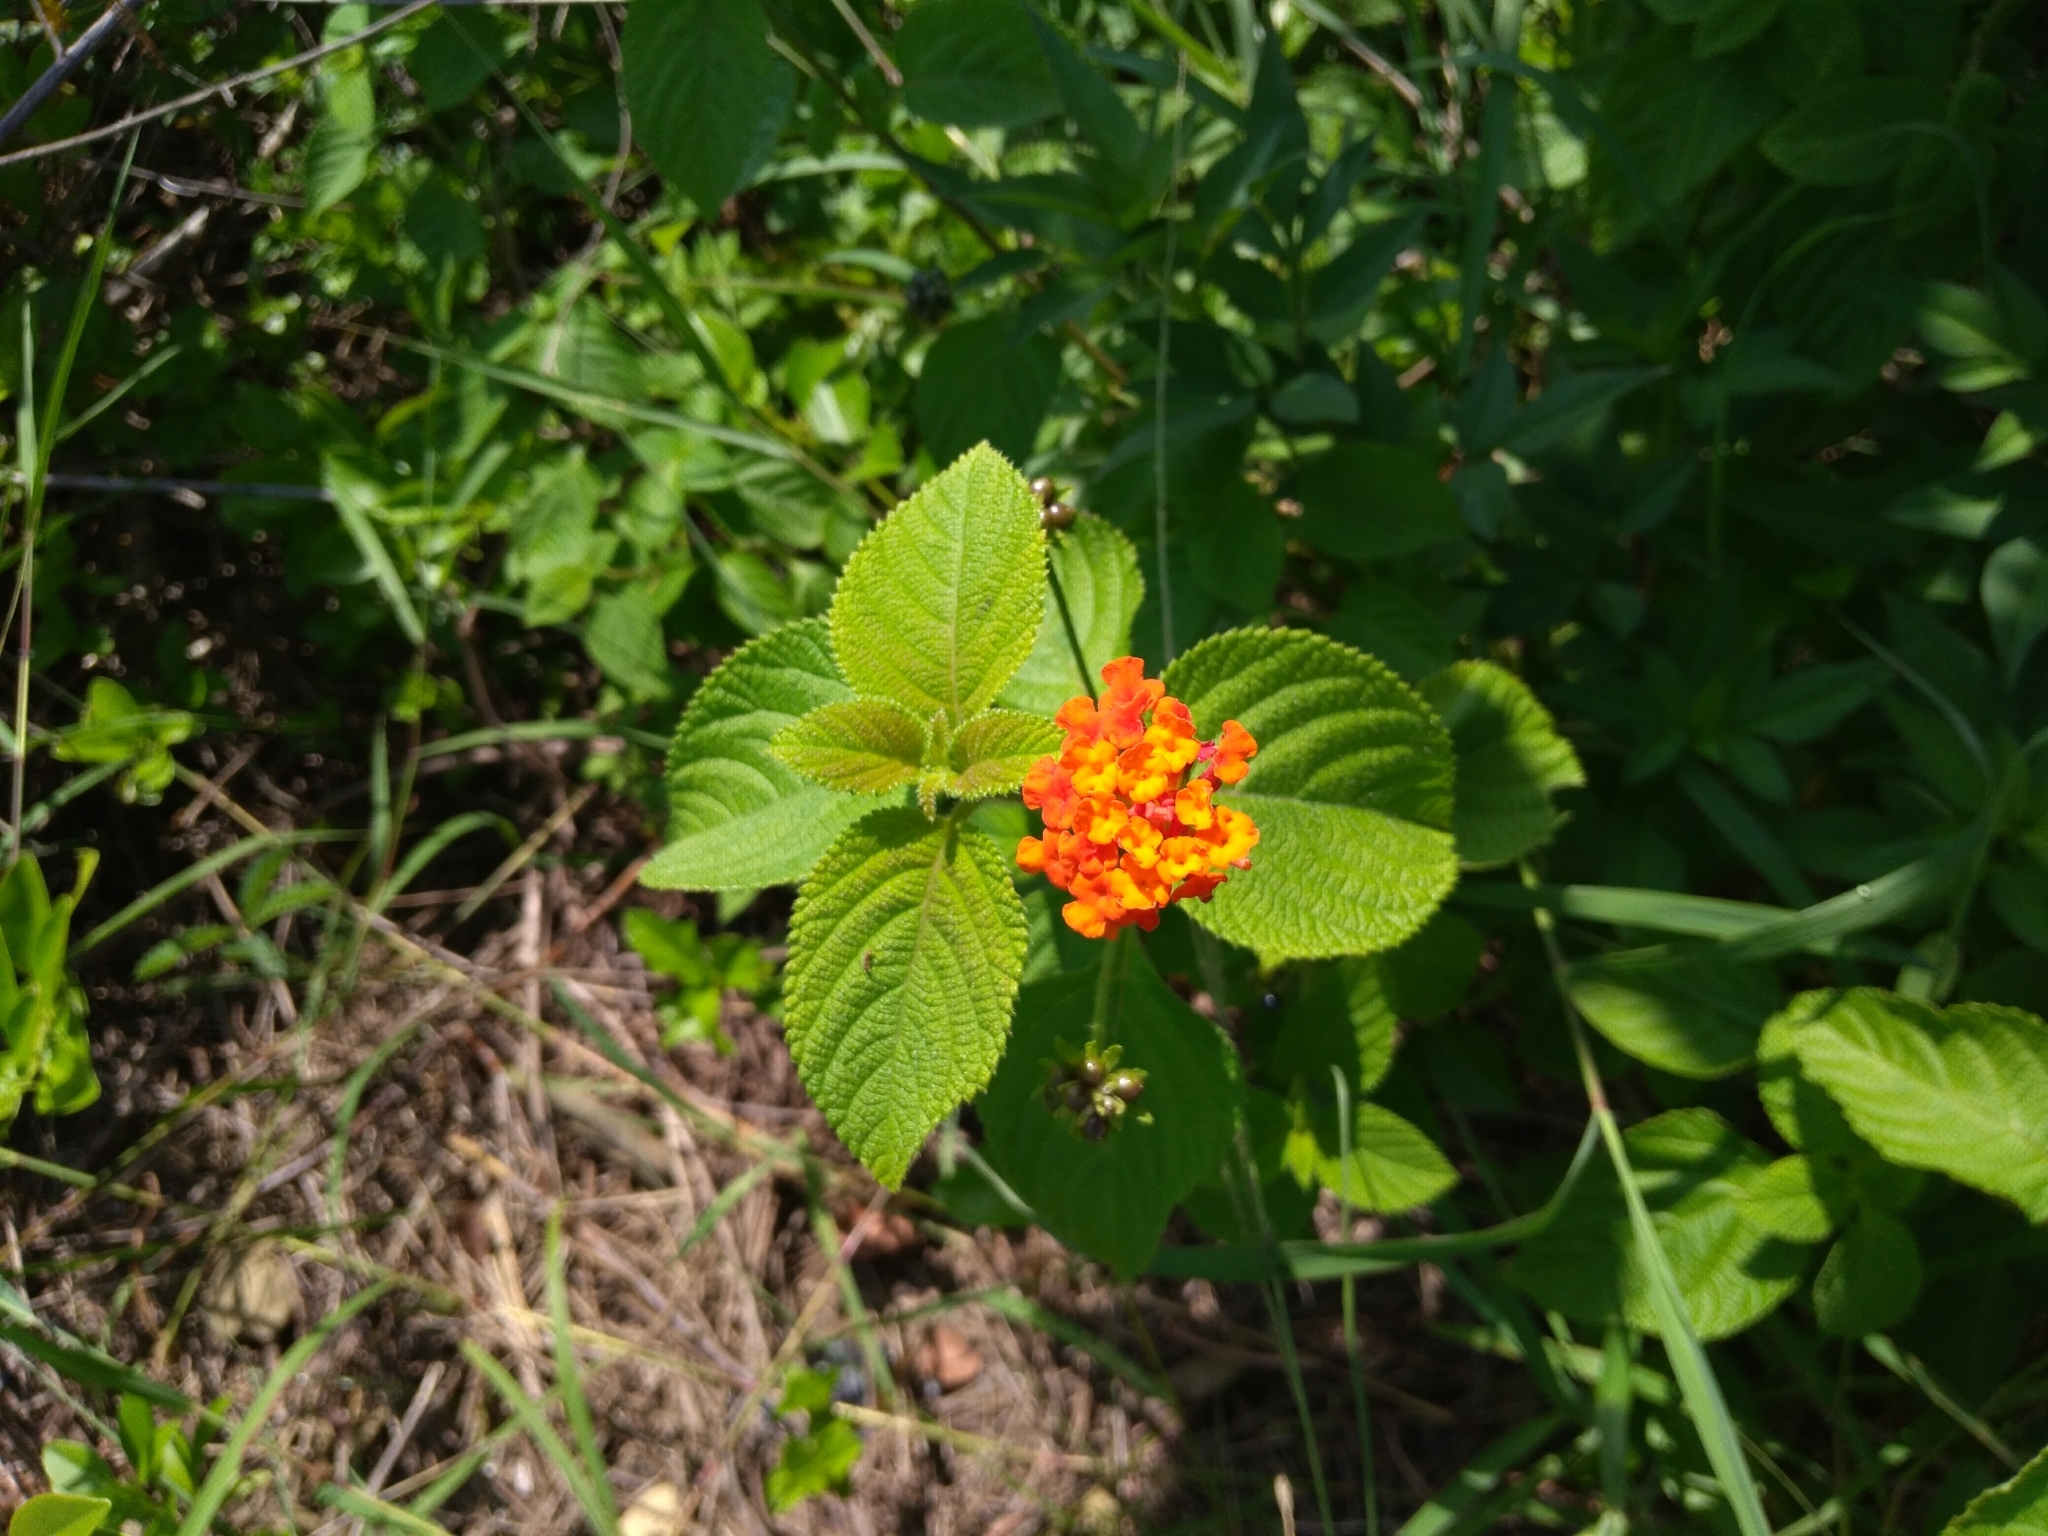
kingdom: Plantae
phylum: Tracheophyta
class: Magnoliopsida
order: Lamiales
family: Verbenaceae
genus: Lantana
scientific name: Lantana camara
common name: Lantana
